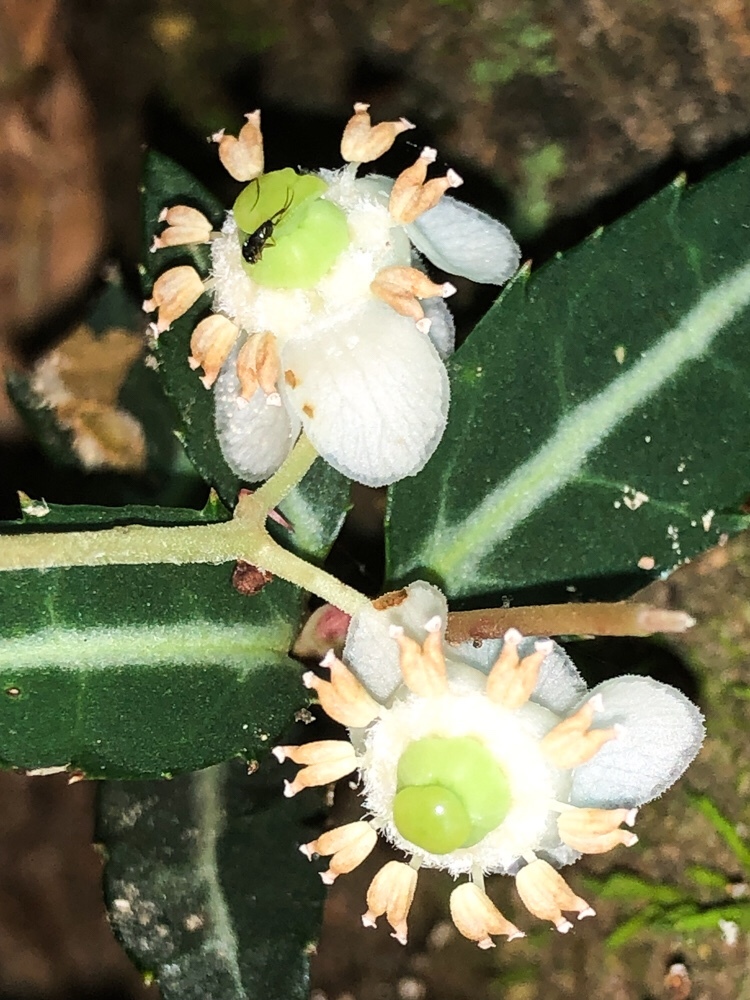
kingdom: Plantae
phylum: Tracheophyta
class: Magnoliopsida
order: Ericales
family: Ericaceae
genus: Chimaphila
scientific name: Chimaphila maculata
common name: Spotted pipsissewa
